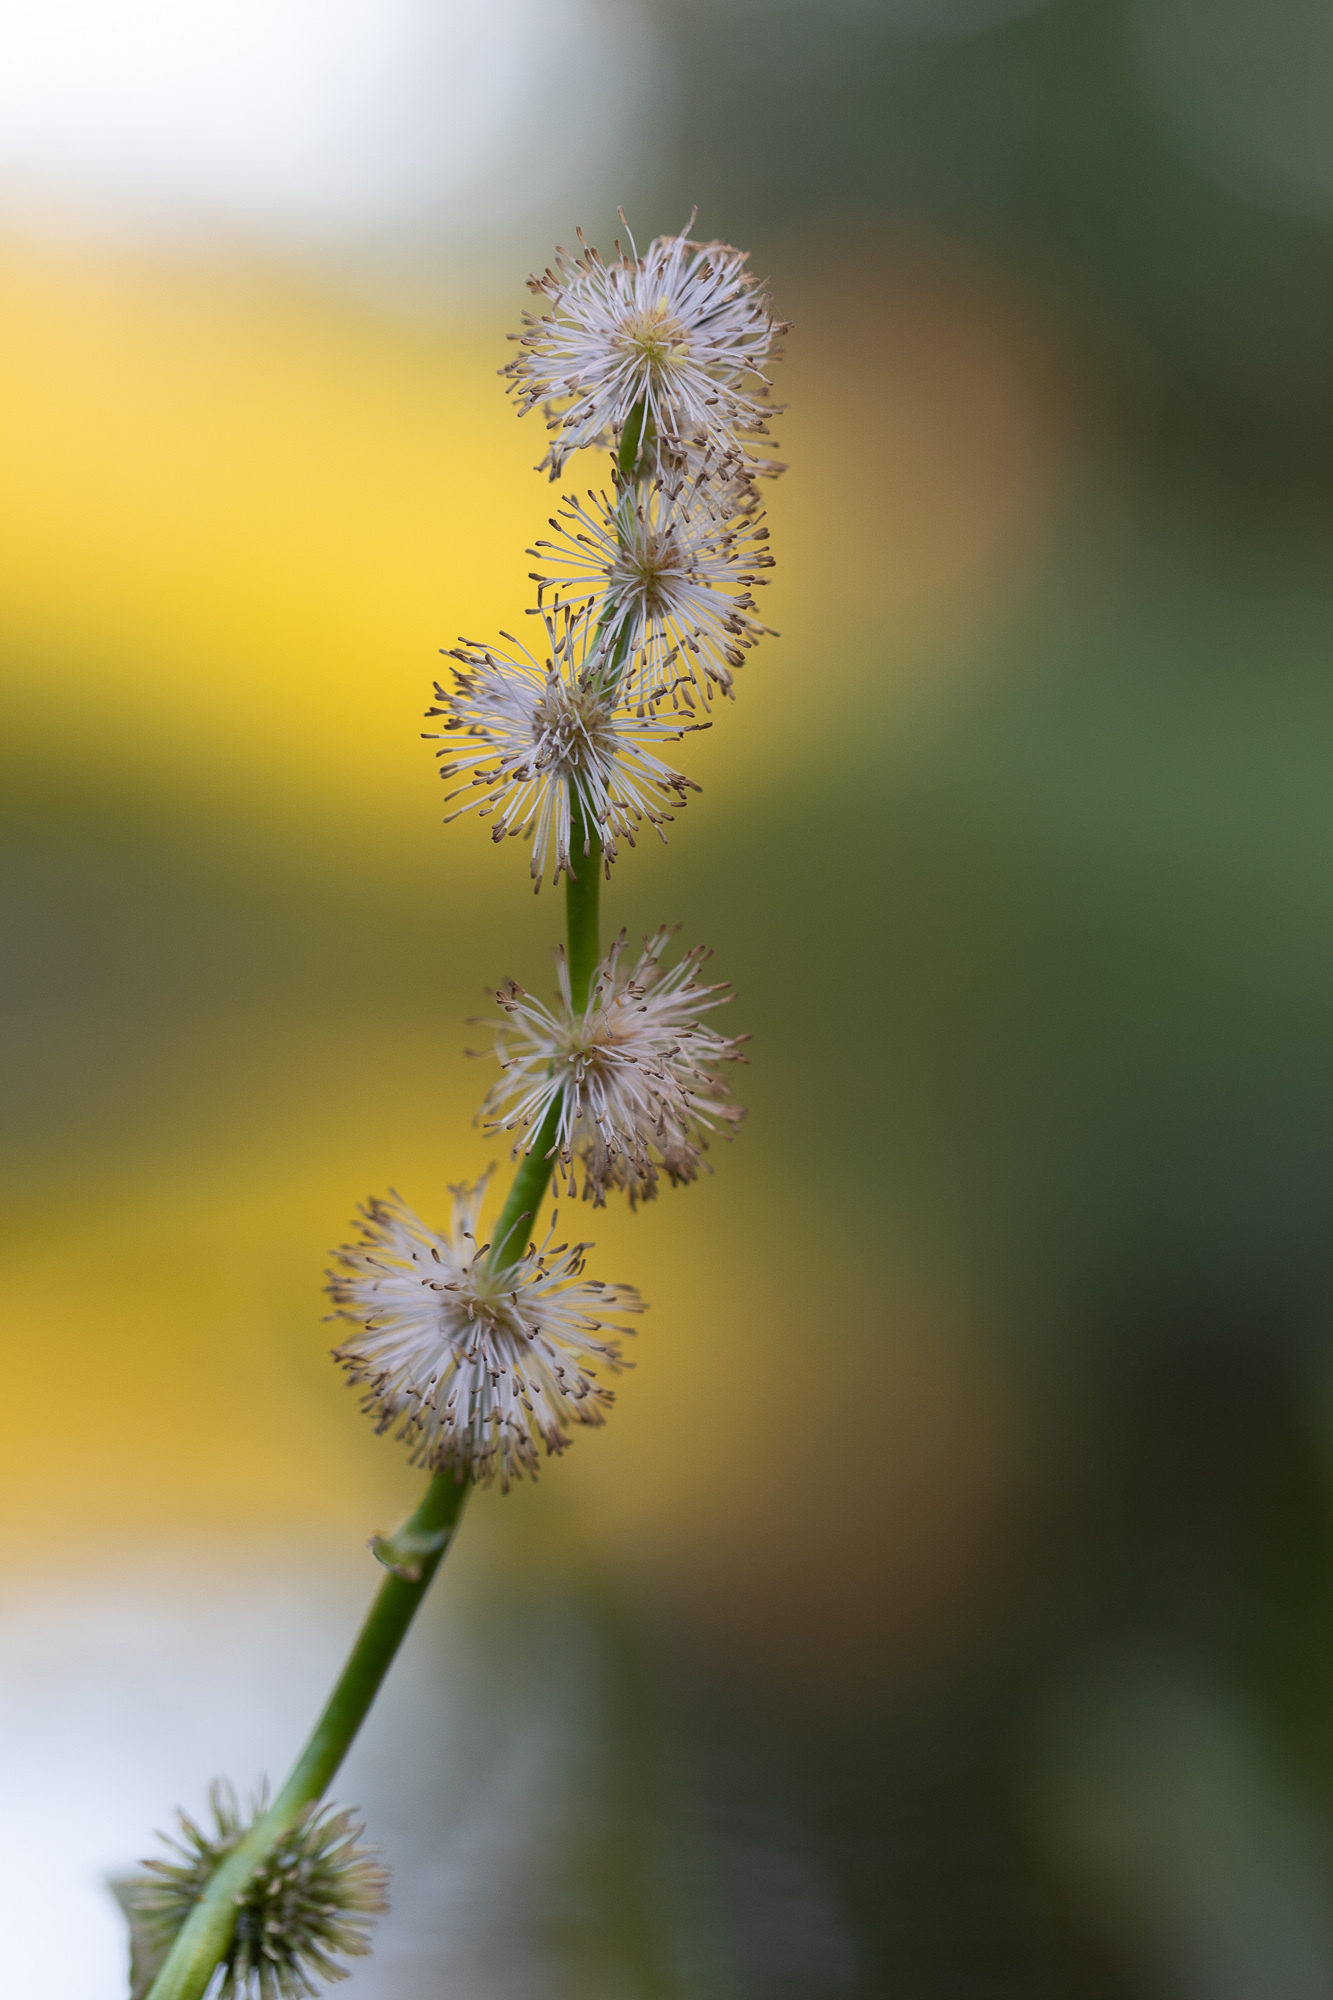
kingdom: Plantae
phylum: Tracheophyta
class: Liliopsida
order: Poales
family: Typhaceae
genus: Sparganium
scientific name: Sparganium emersum
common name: Unbranched bur-reed
